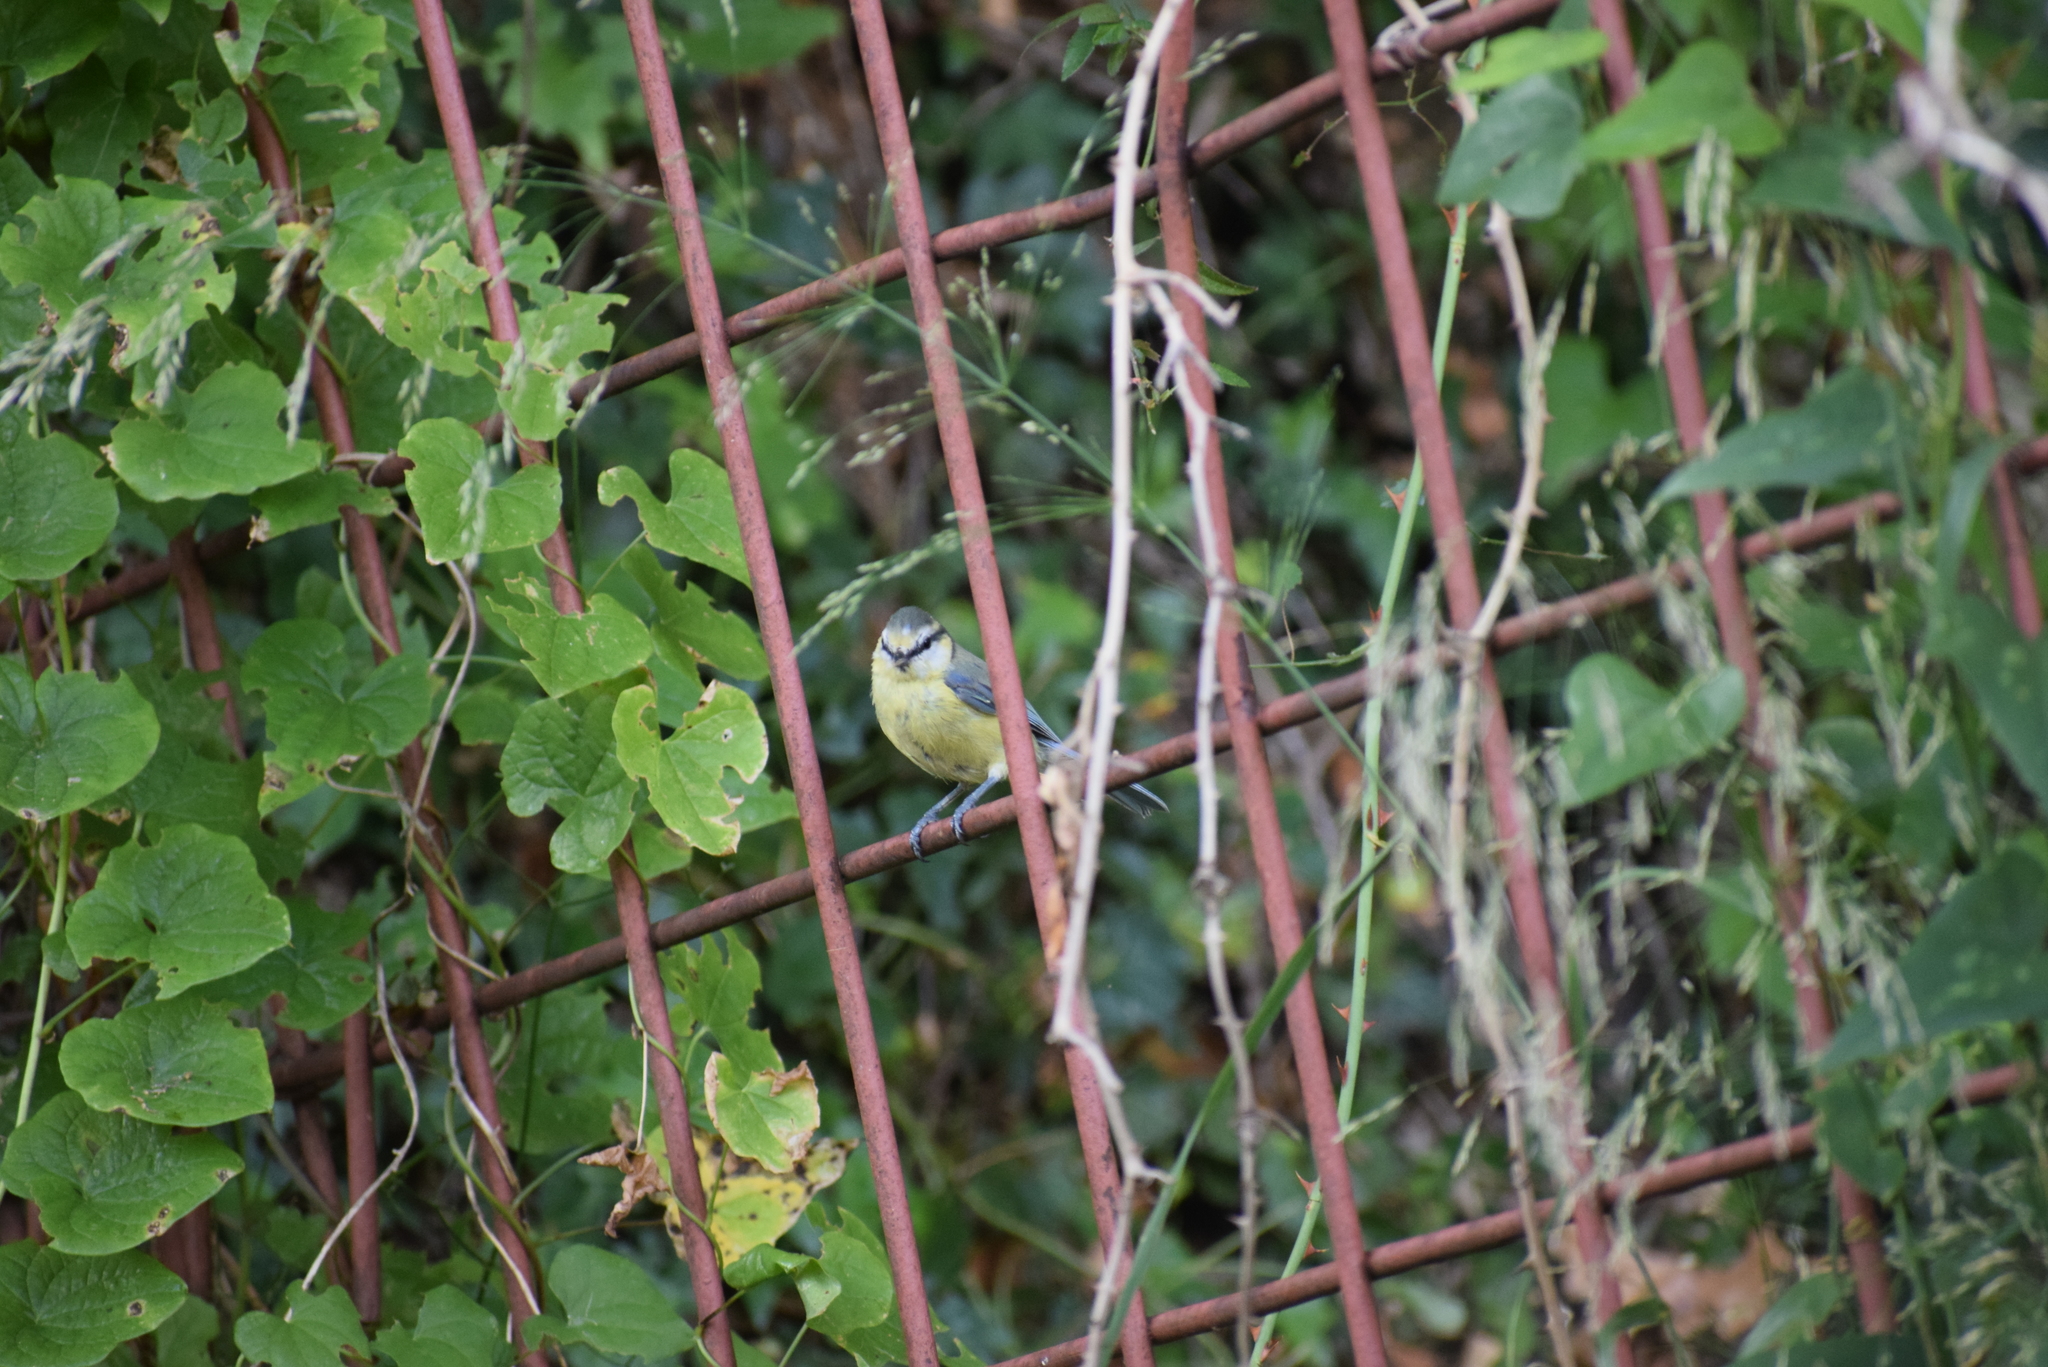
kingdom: Animalia
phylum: Chordata
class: Aves
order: Passeriformes
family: Paridae
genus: Cyanistes
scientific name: Cyanistes caeruleus
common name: Eurasian blue tit
